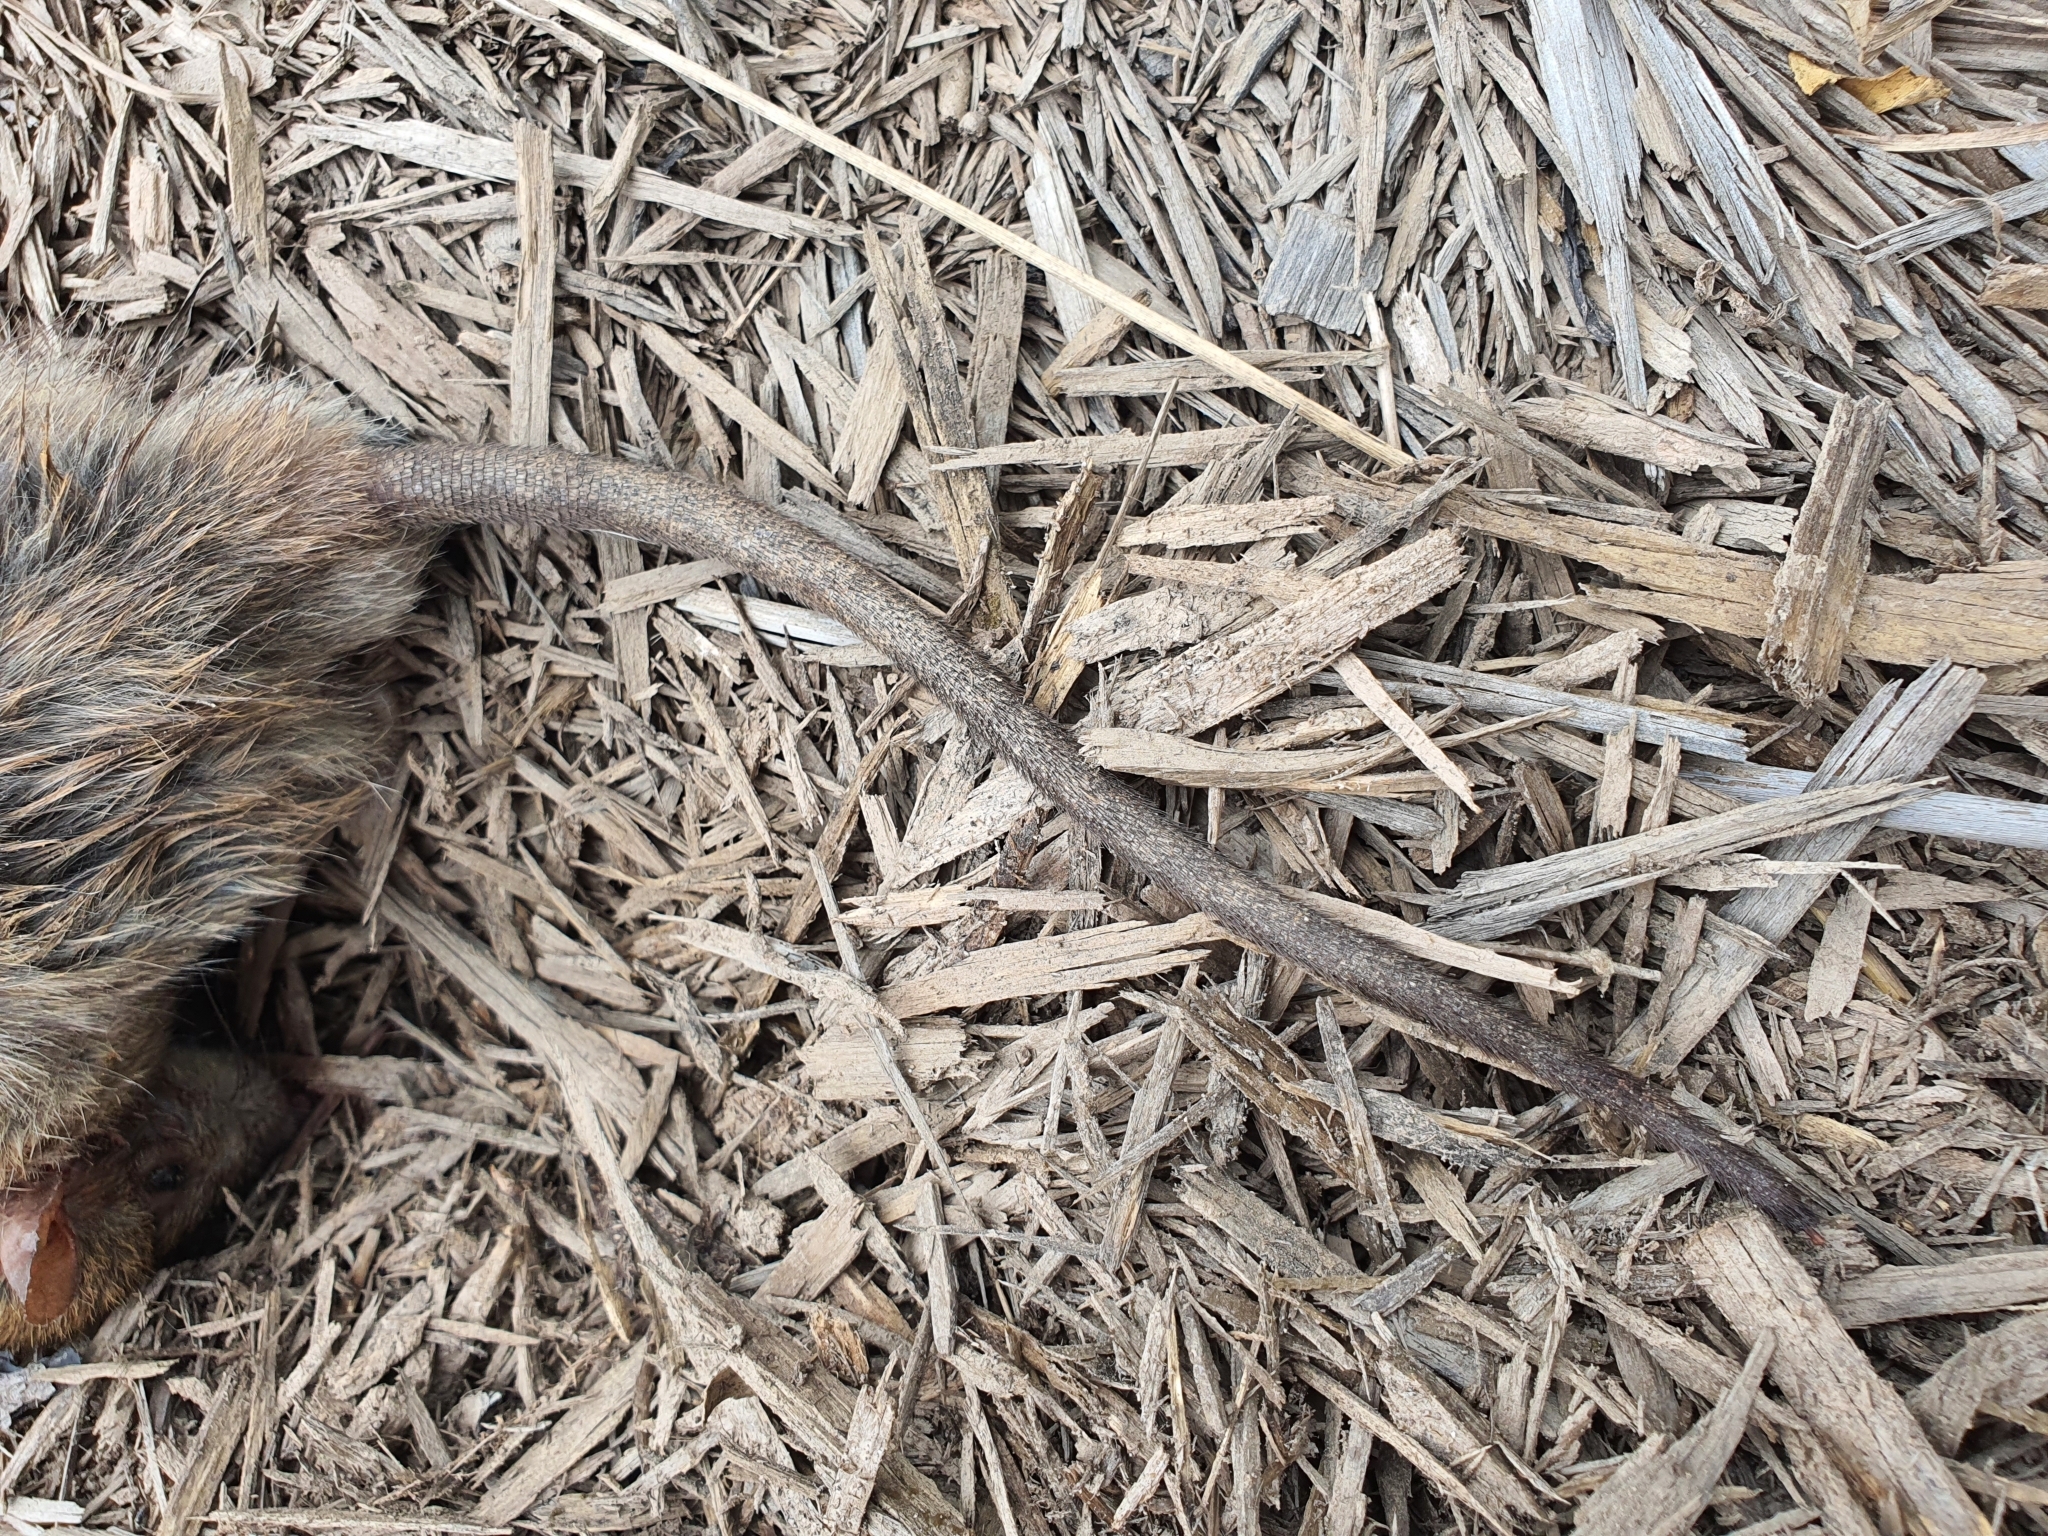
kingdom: Animalia
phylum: Chordata
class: Mammalia
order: Rodentia
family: Muridae
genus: Rattus
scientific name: Rattus rattus
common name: Black rat
